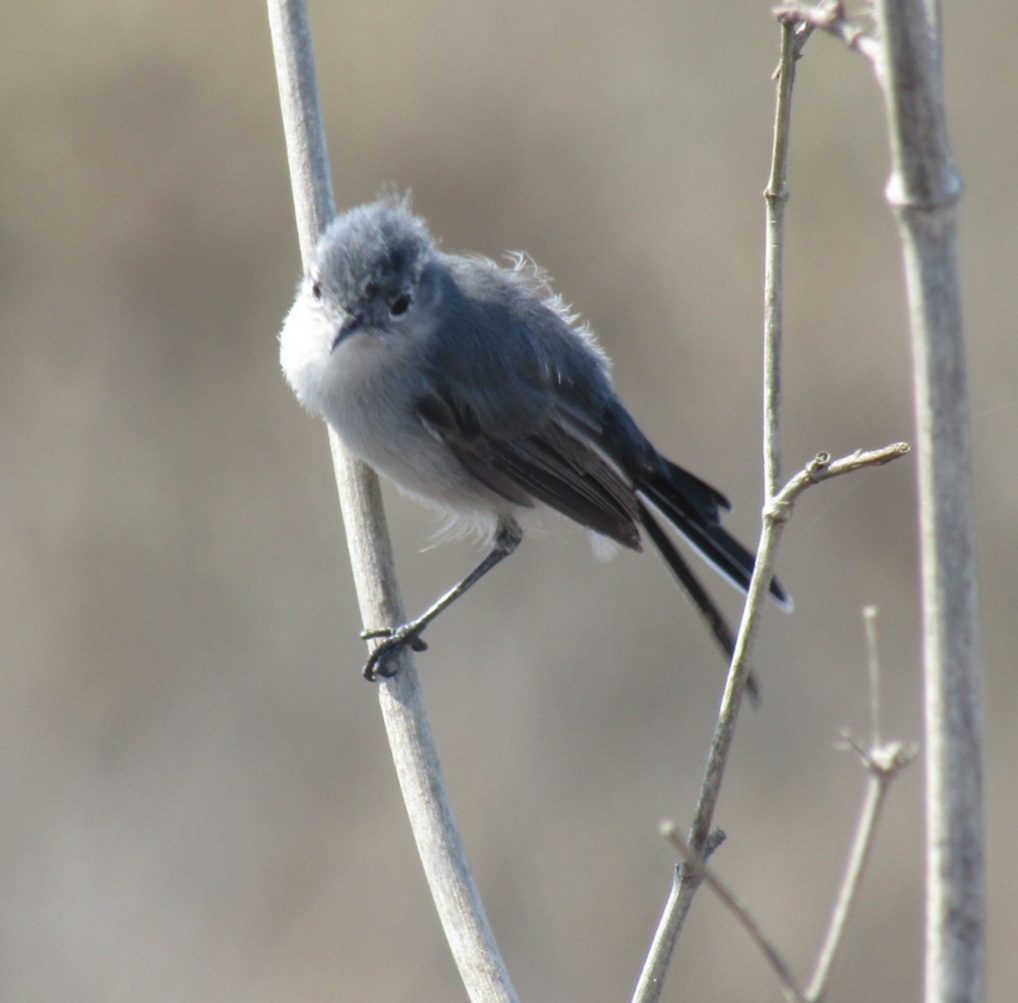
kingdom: Animalia
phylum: Chordata
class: Aves
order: Passeriformes
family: Polioptilidae
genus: Polioptila
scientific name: Polioptila caerulea
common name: Blue-gray gnatcatcher
